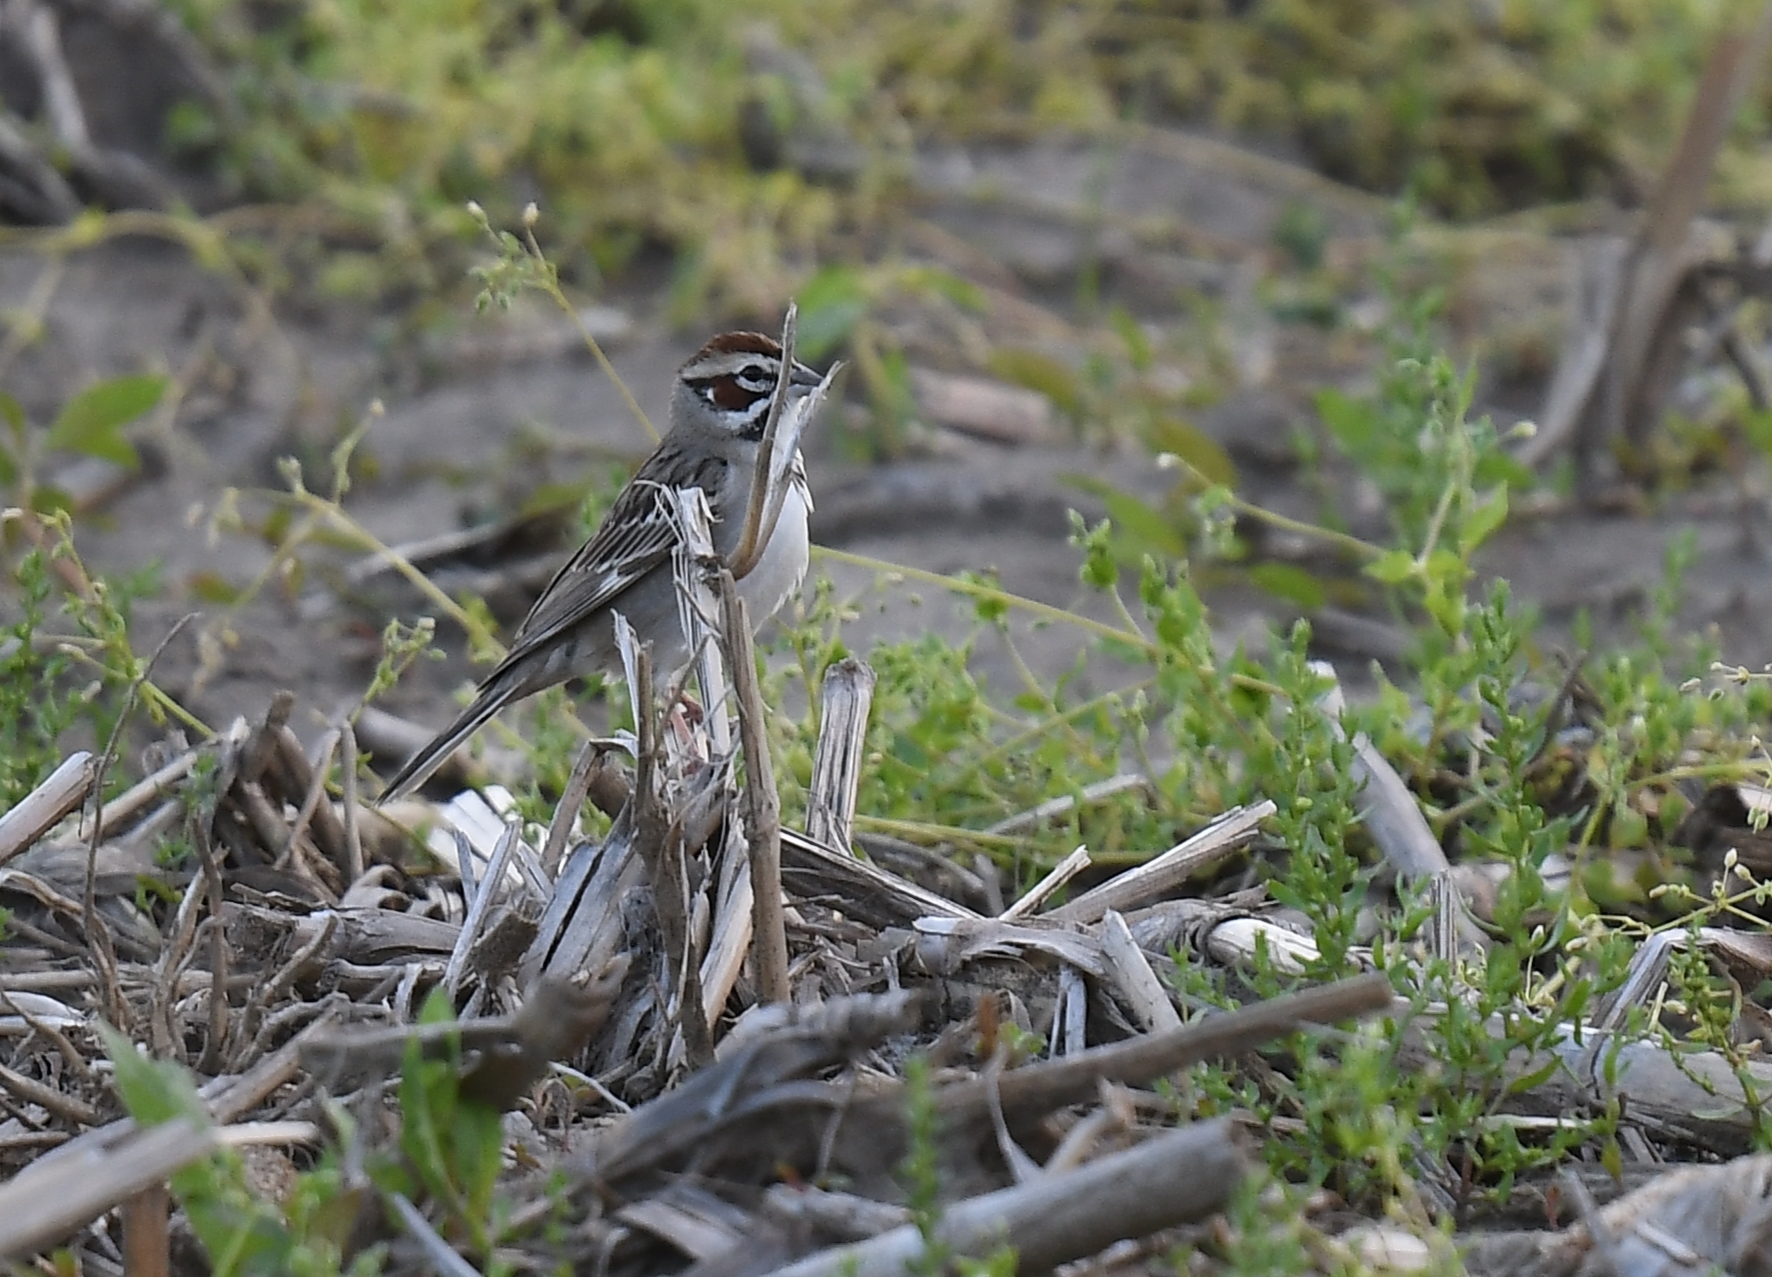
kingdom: Animalia
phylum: Chordata
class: Aves
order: Passeriformes
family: Passerellidae
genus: Chondestes
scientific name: Chondestes grammacus
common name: Lark sparrow
